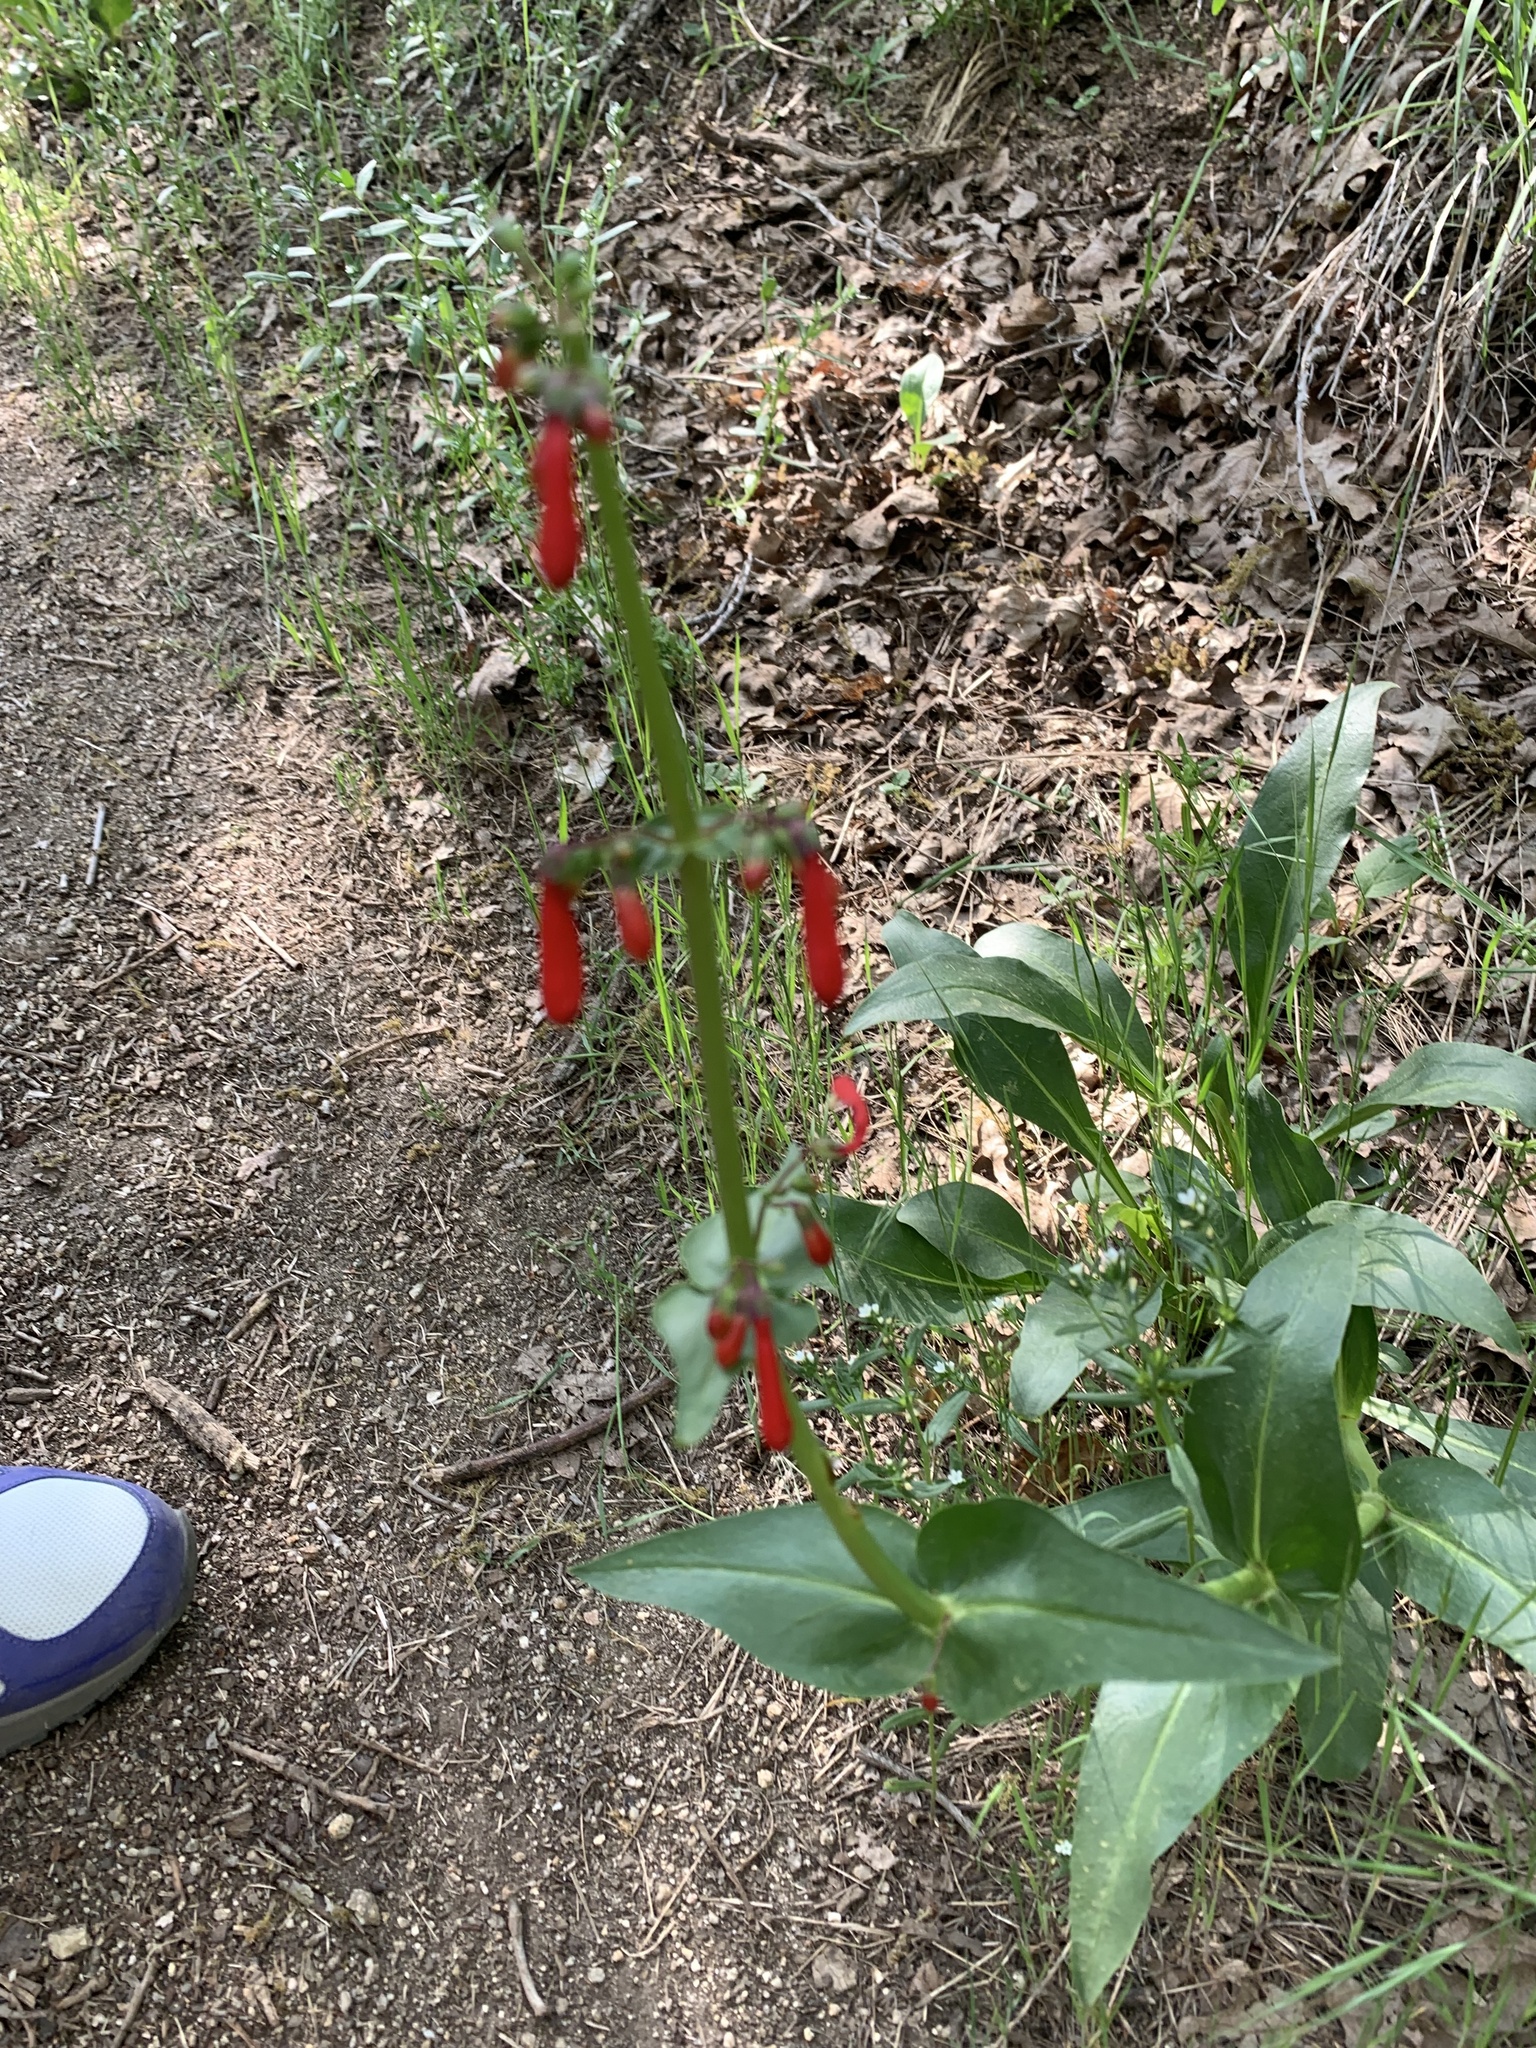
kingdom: Plantae
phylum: Tracheophyta
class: Magnoliopsida
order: Lamiales
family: Plantaginaceae
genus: Penstemon
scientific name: Penstemon eatonii
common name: Eaton's penstemon
